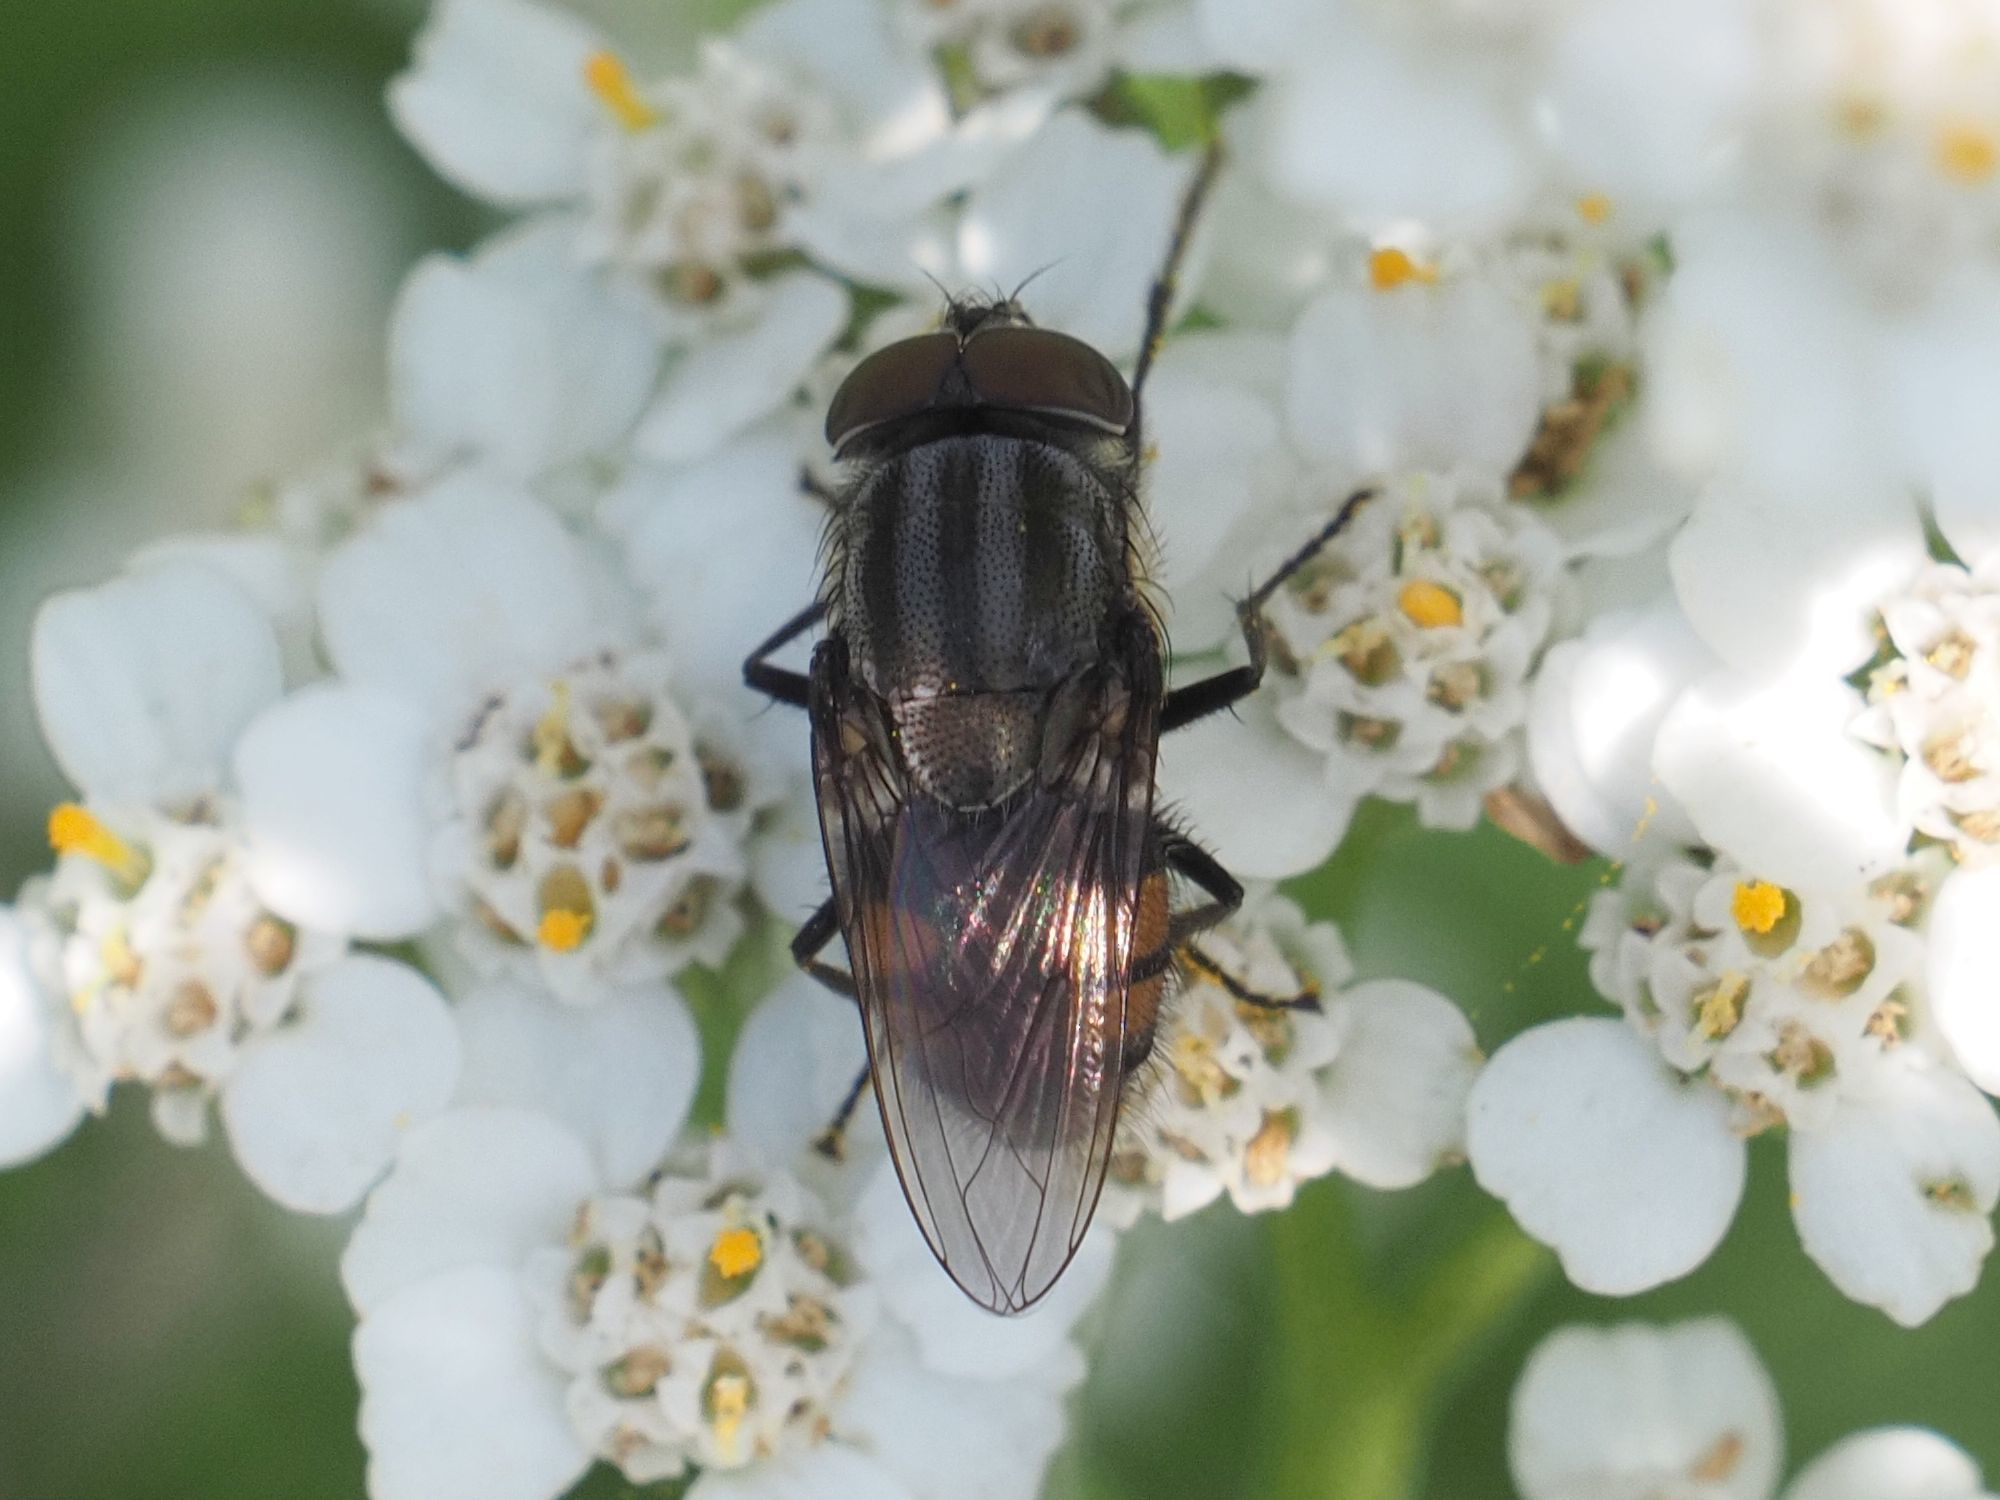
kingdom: Animalia
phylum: Arthropoda
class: Insecta
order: Diptera
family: Calliphoridae
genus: Stomorhina
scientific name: Stomorhina lunata
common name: Locust blowfly
